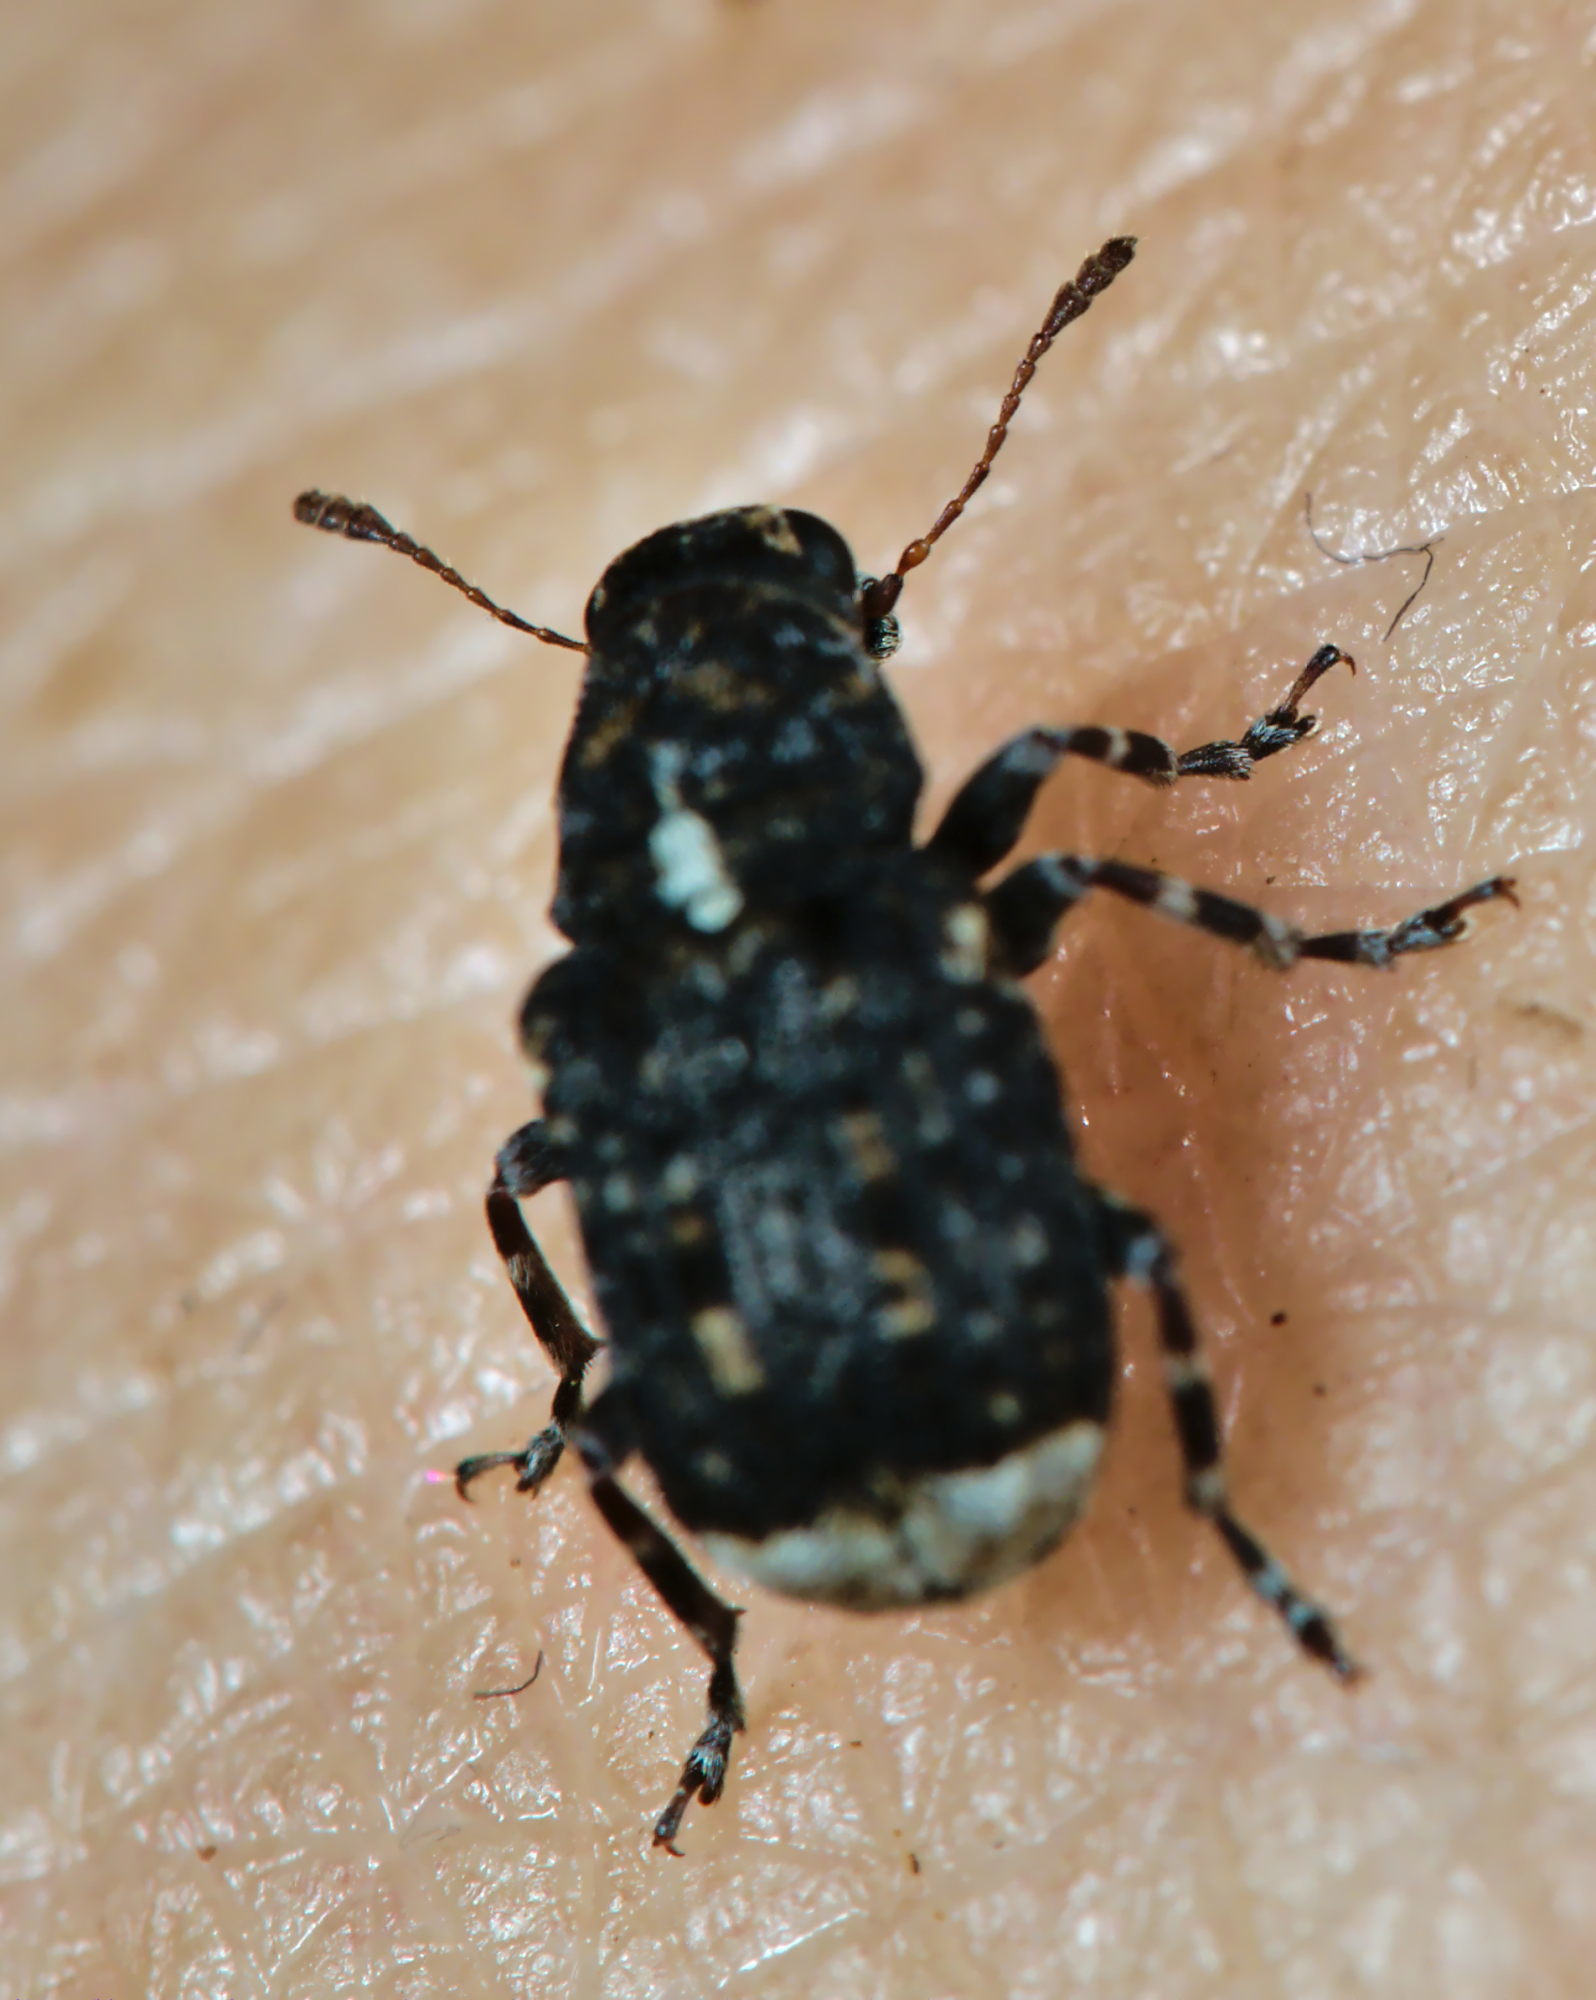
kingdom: Animalia
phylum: Arthropoda
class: Insecta
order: Coleoptera
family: Anthribidae
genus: Dissoleucas
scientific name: Dissoleucas niveirostris
